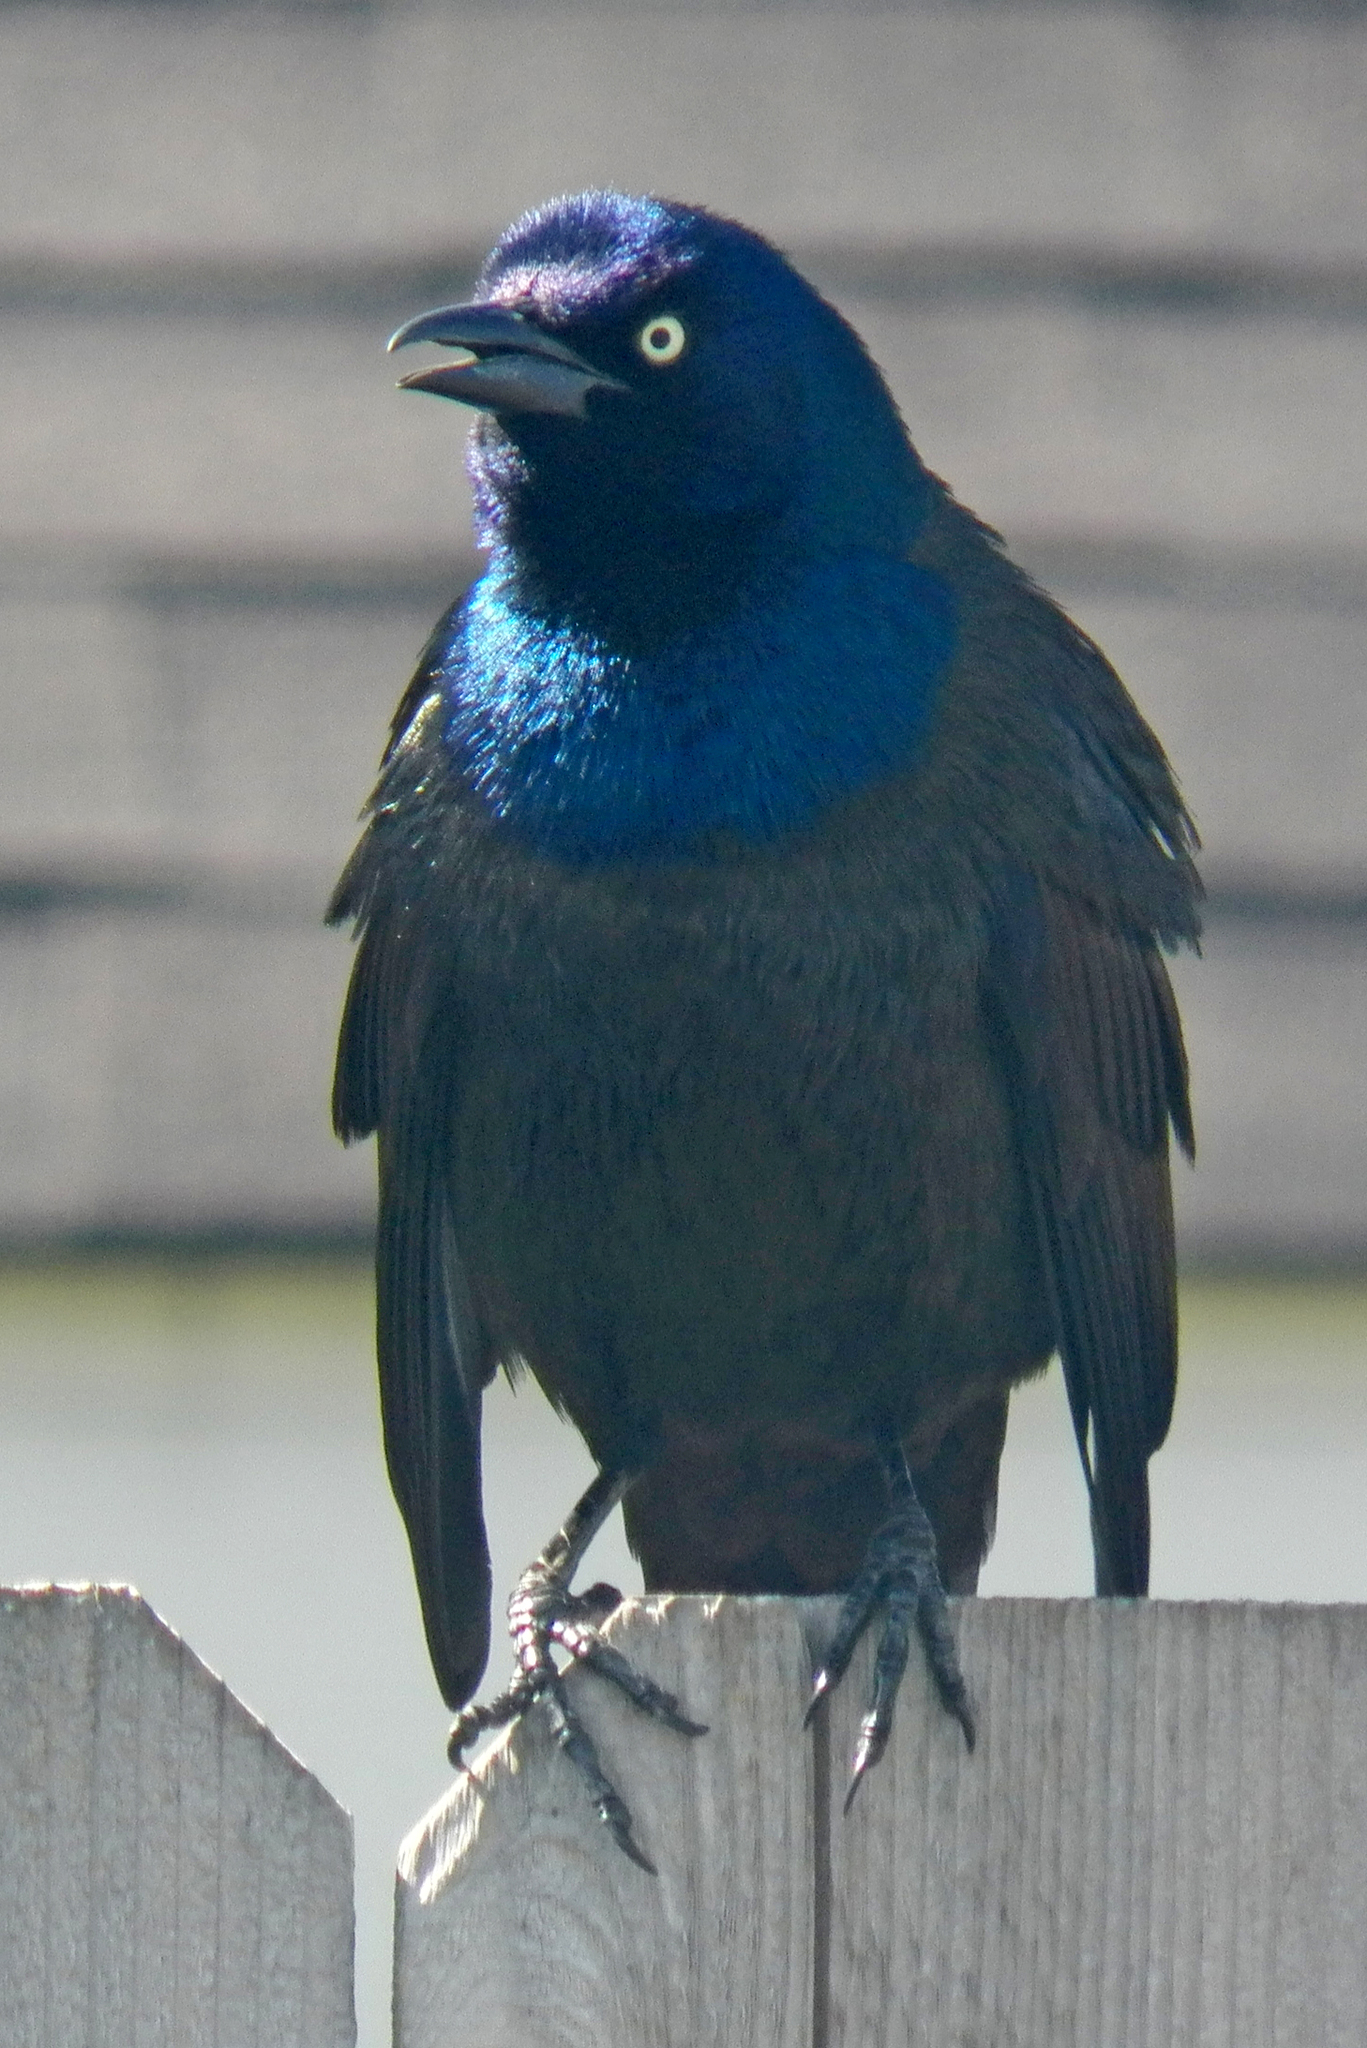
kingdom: Animalia
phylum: Chordata
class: Aves
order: Passeriformes
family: Icteridae
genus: Quiscalus
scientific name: Quiscalus quiscula
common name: Common grackle
